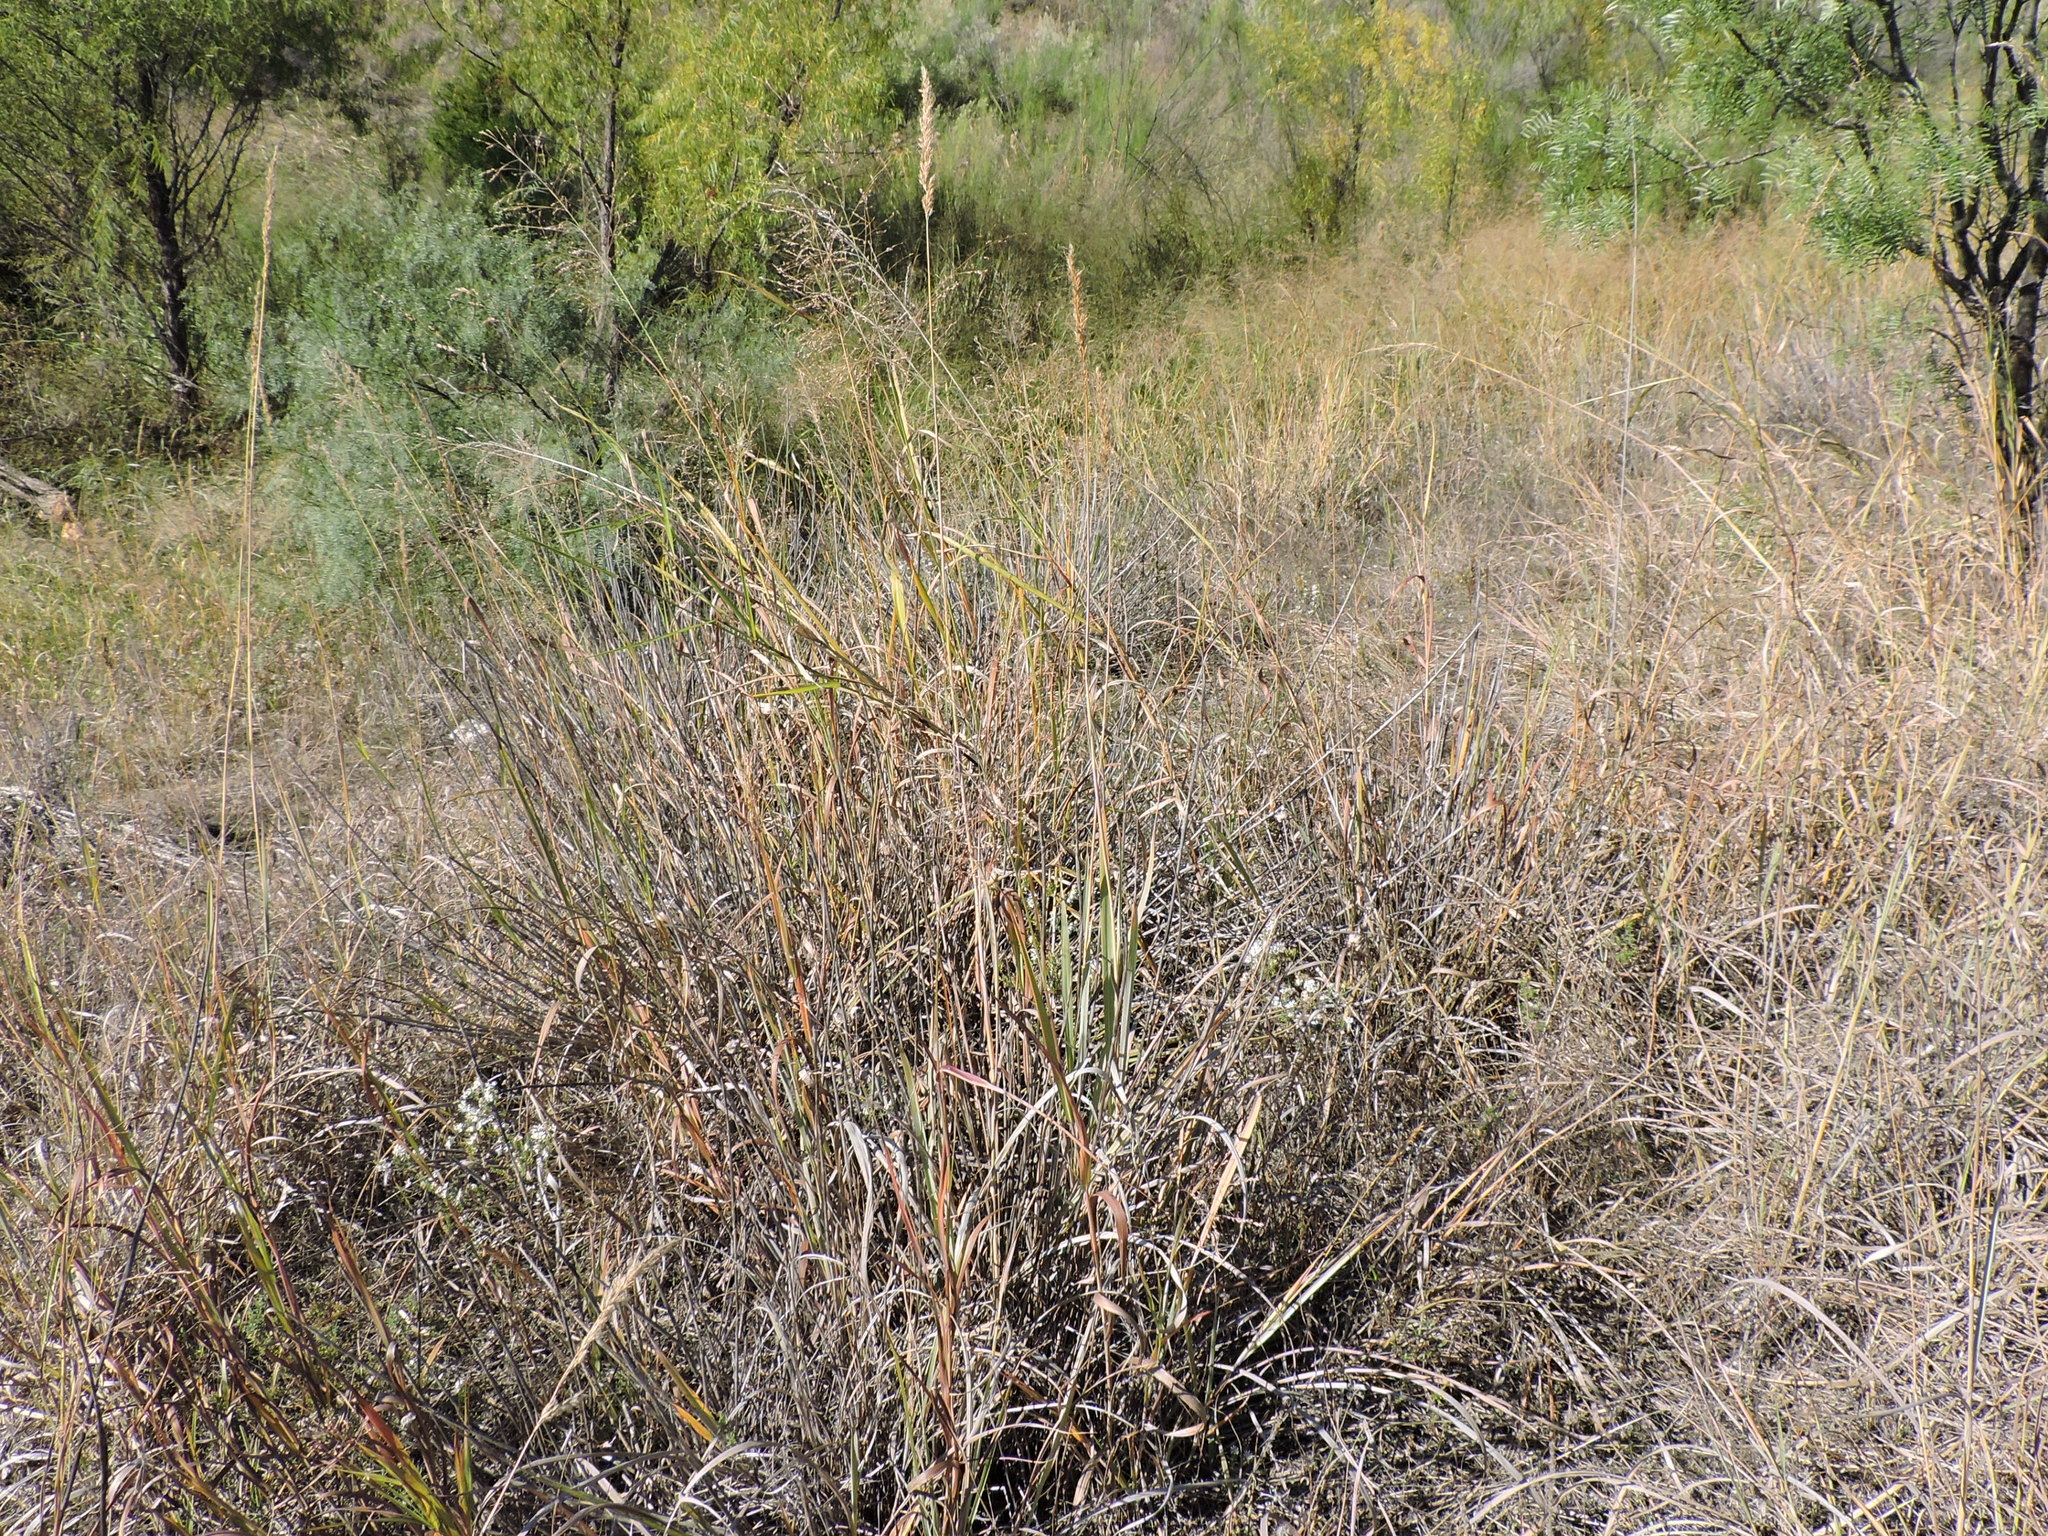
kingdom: Plantae
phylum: Tracheophyta
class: Liliopsida
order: Poales
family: Poaceae
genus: Sorghastrum
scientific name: Sorghastrum nutans
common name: Indian grass
